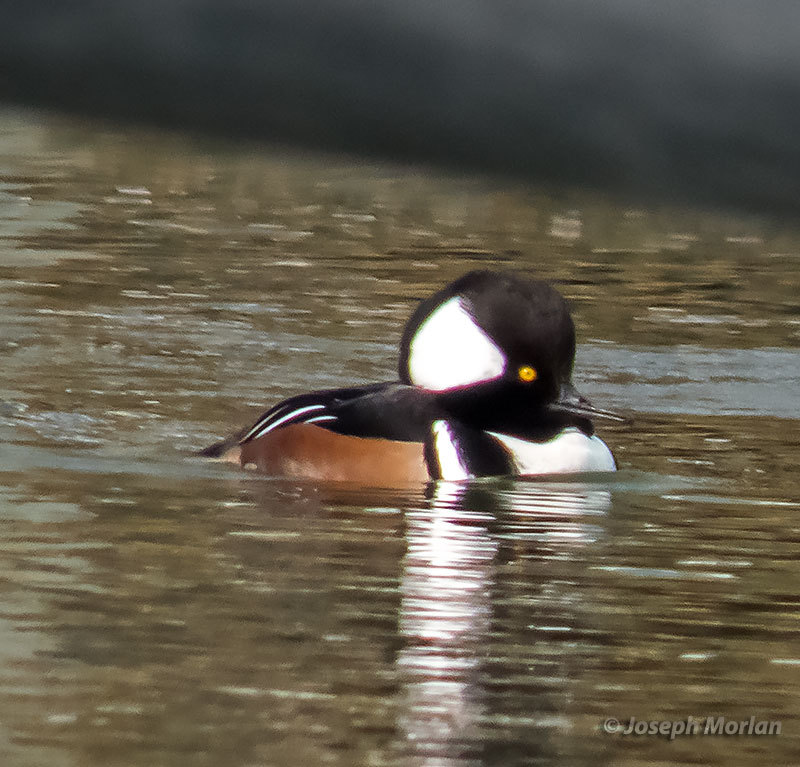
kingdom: Animalia
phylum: Chordata
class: Aves
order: Anseriformes
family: Anatidae
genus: Lophodytes
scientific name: Lophodytes cucullatus
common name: Hooded merganser
